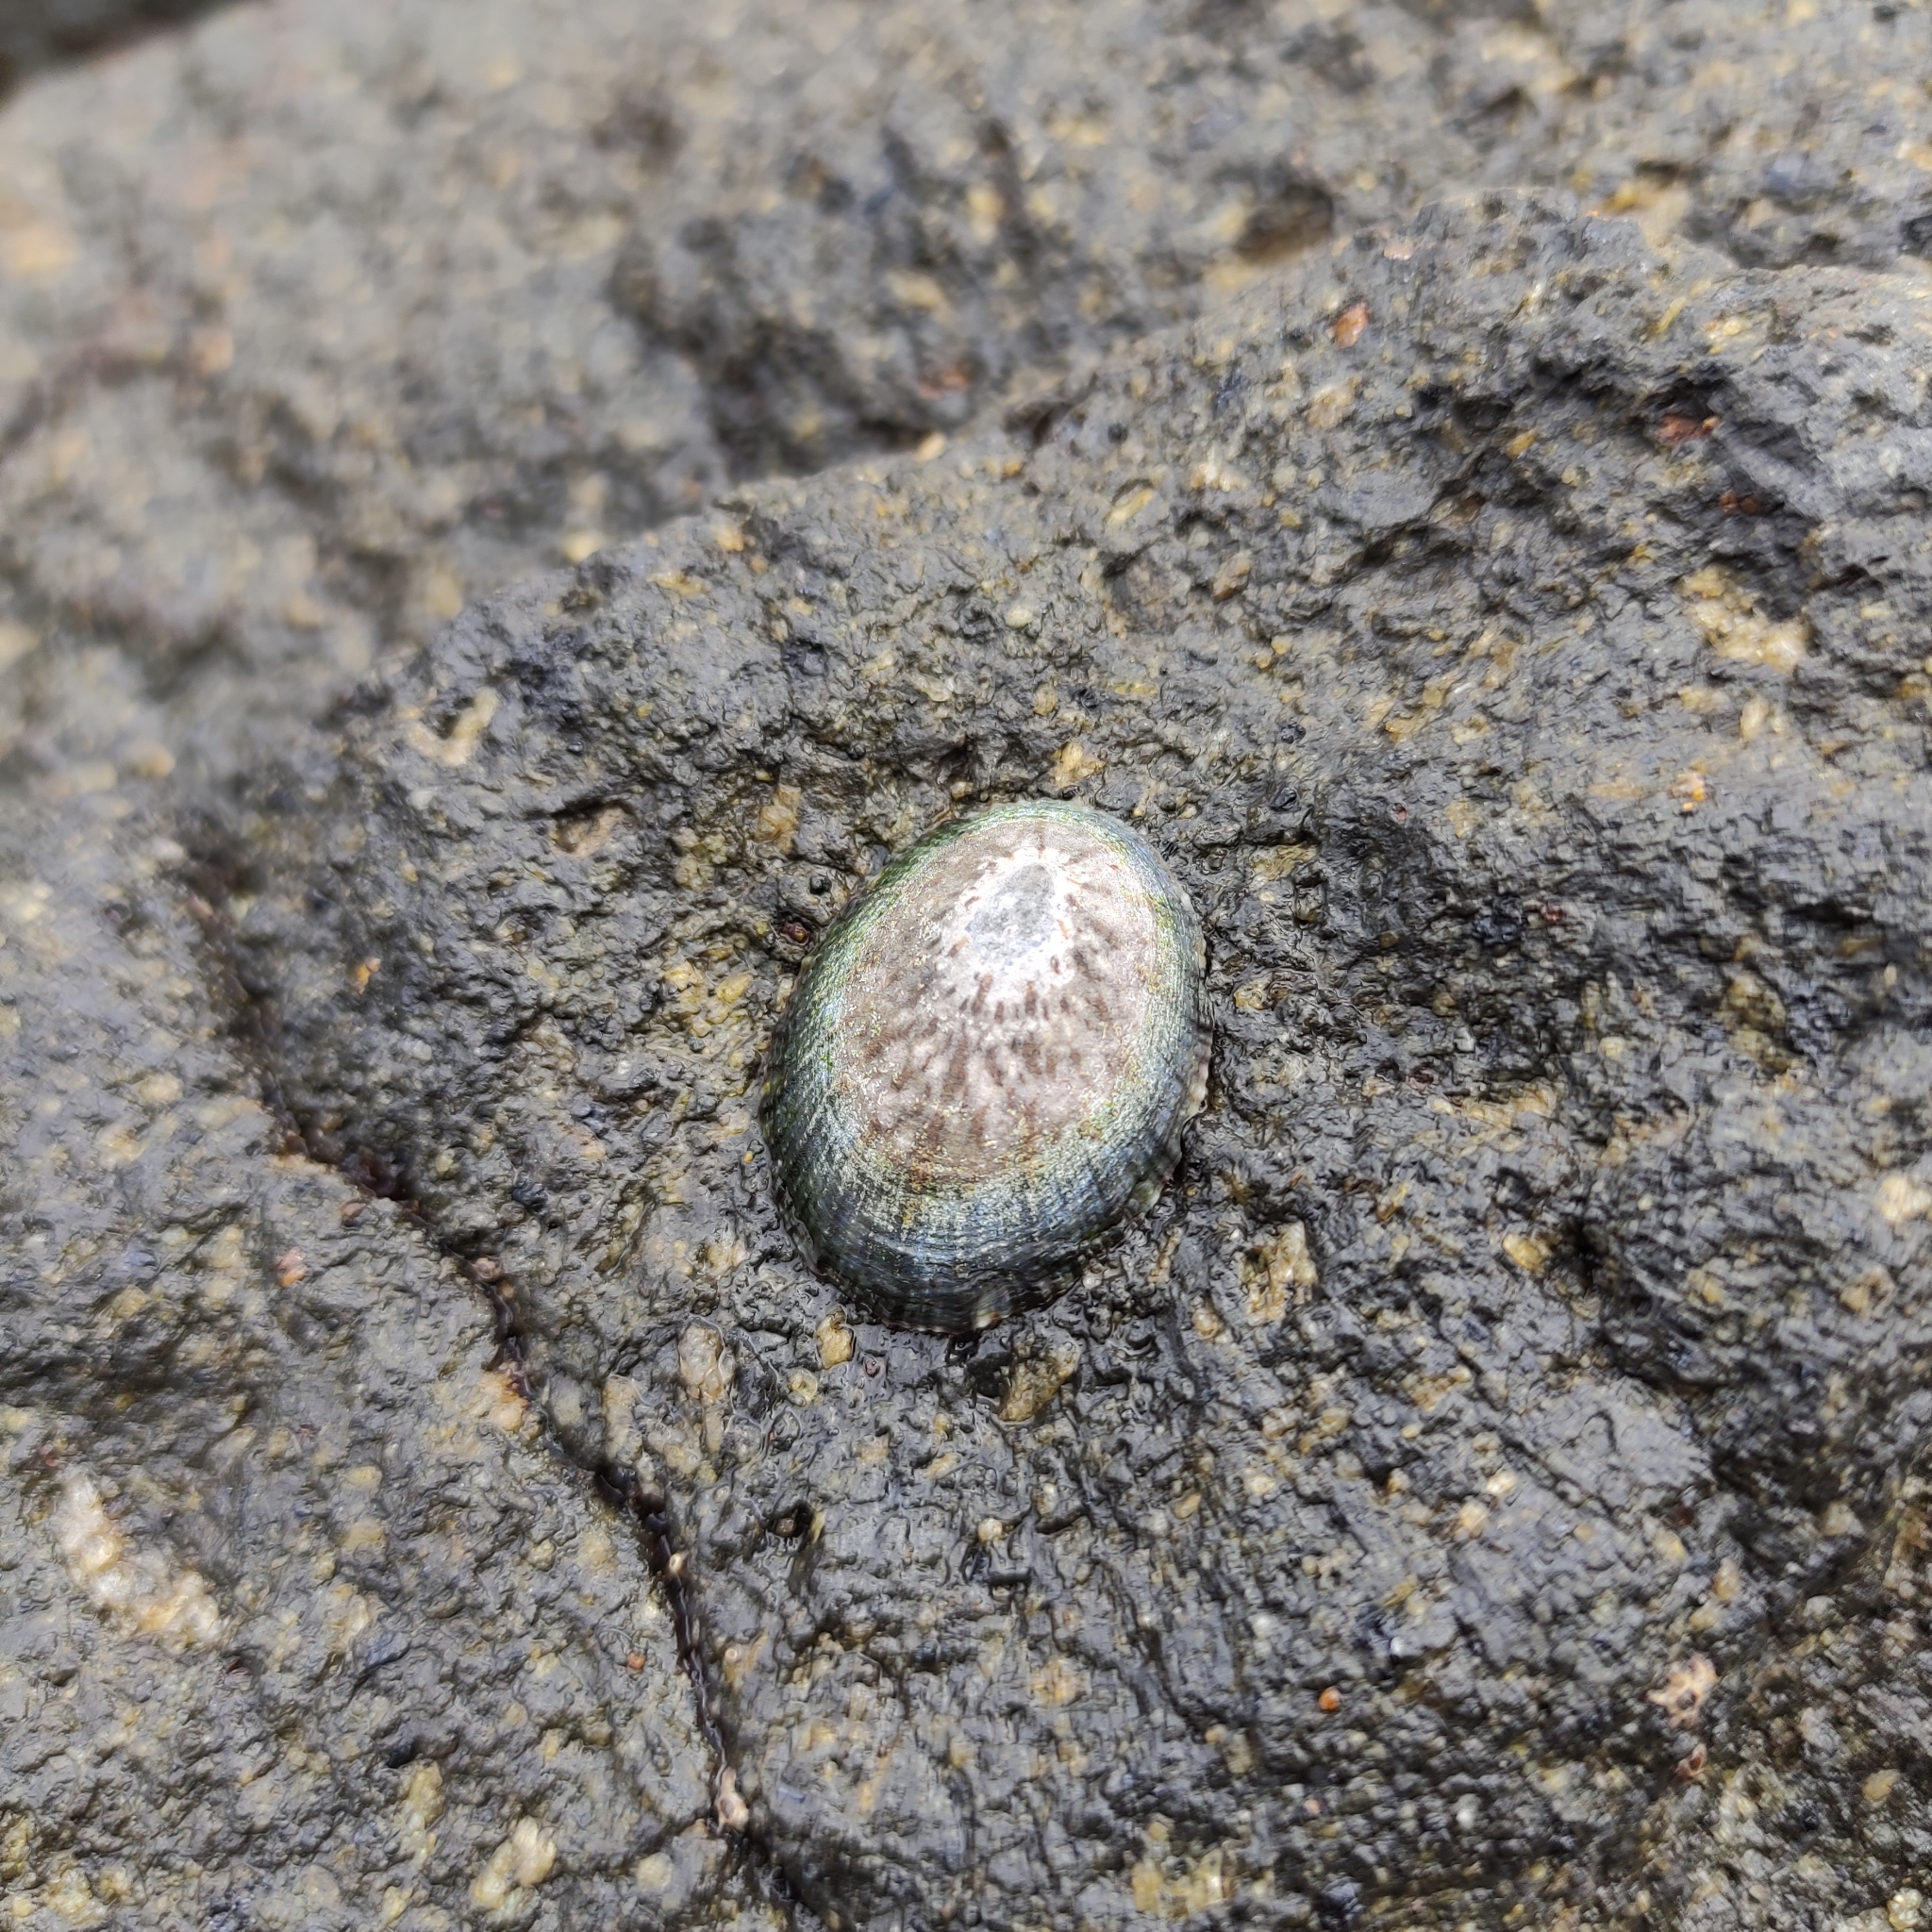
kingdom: Animalia
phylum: Mollusca
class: Gastropoda
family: Nacellidae
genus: Cellana
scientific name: Cellana radians
